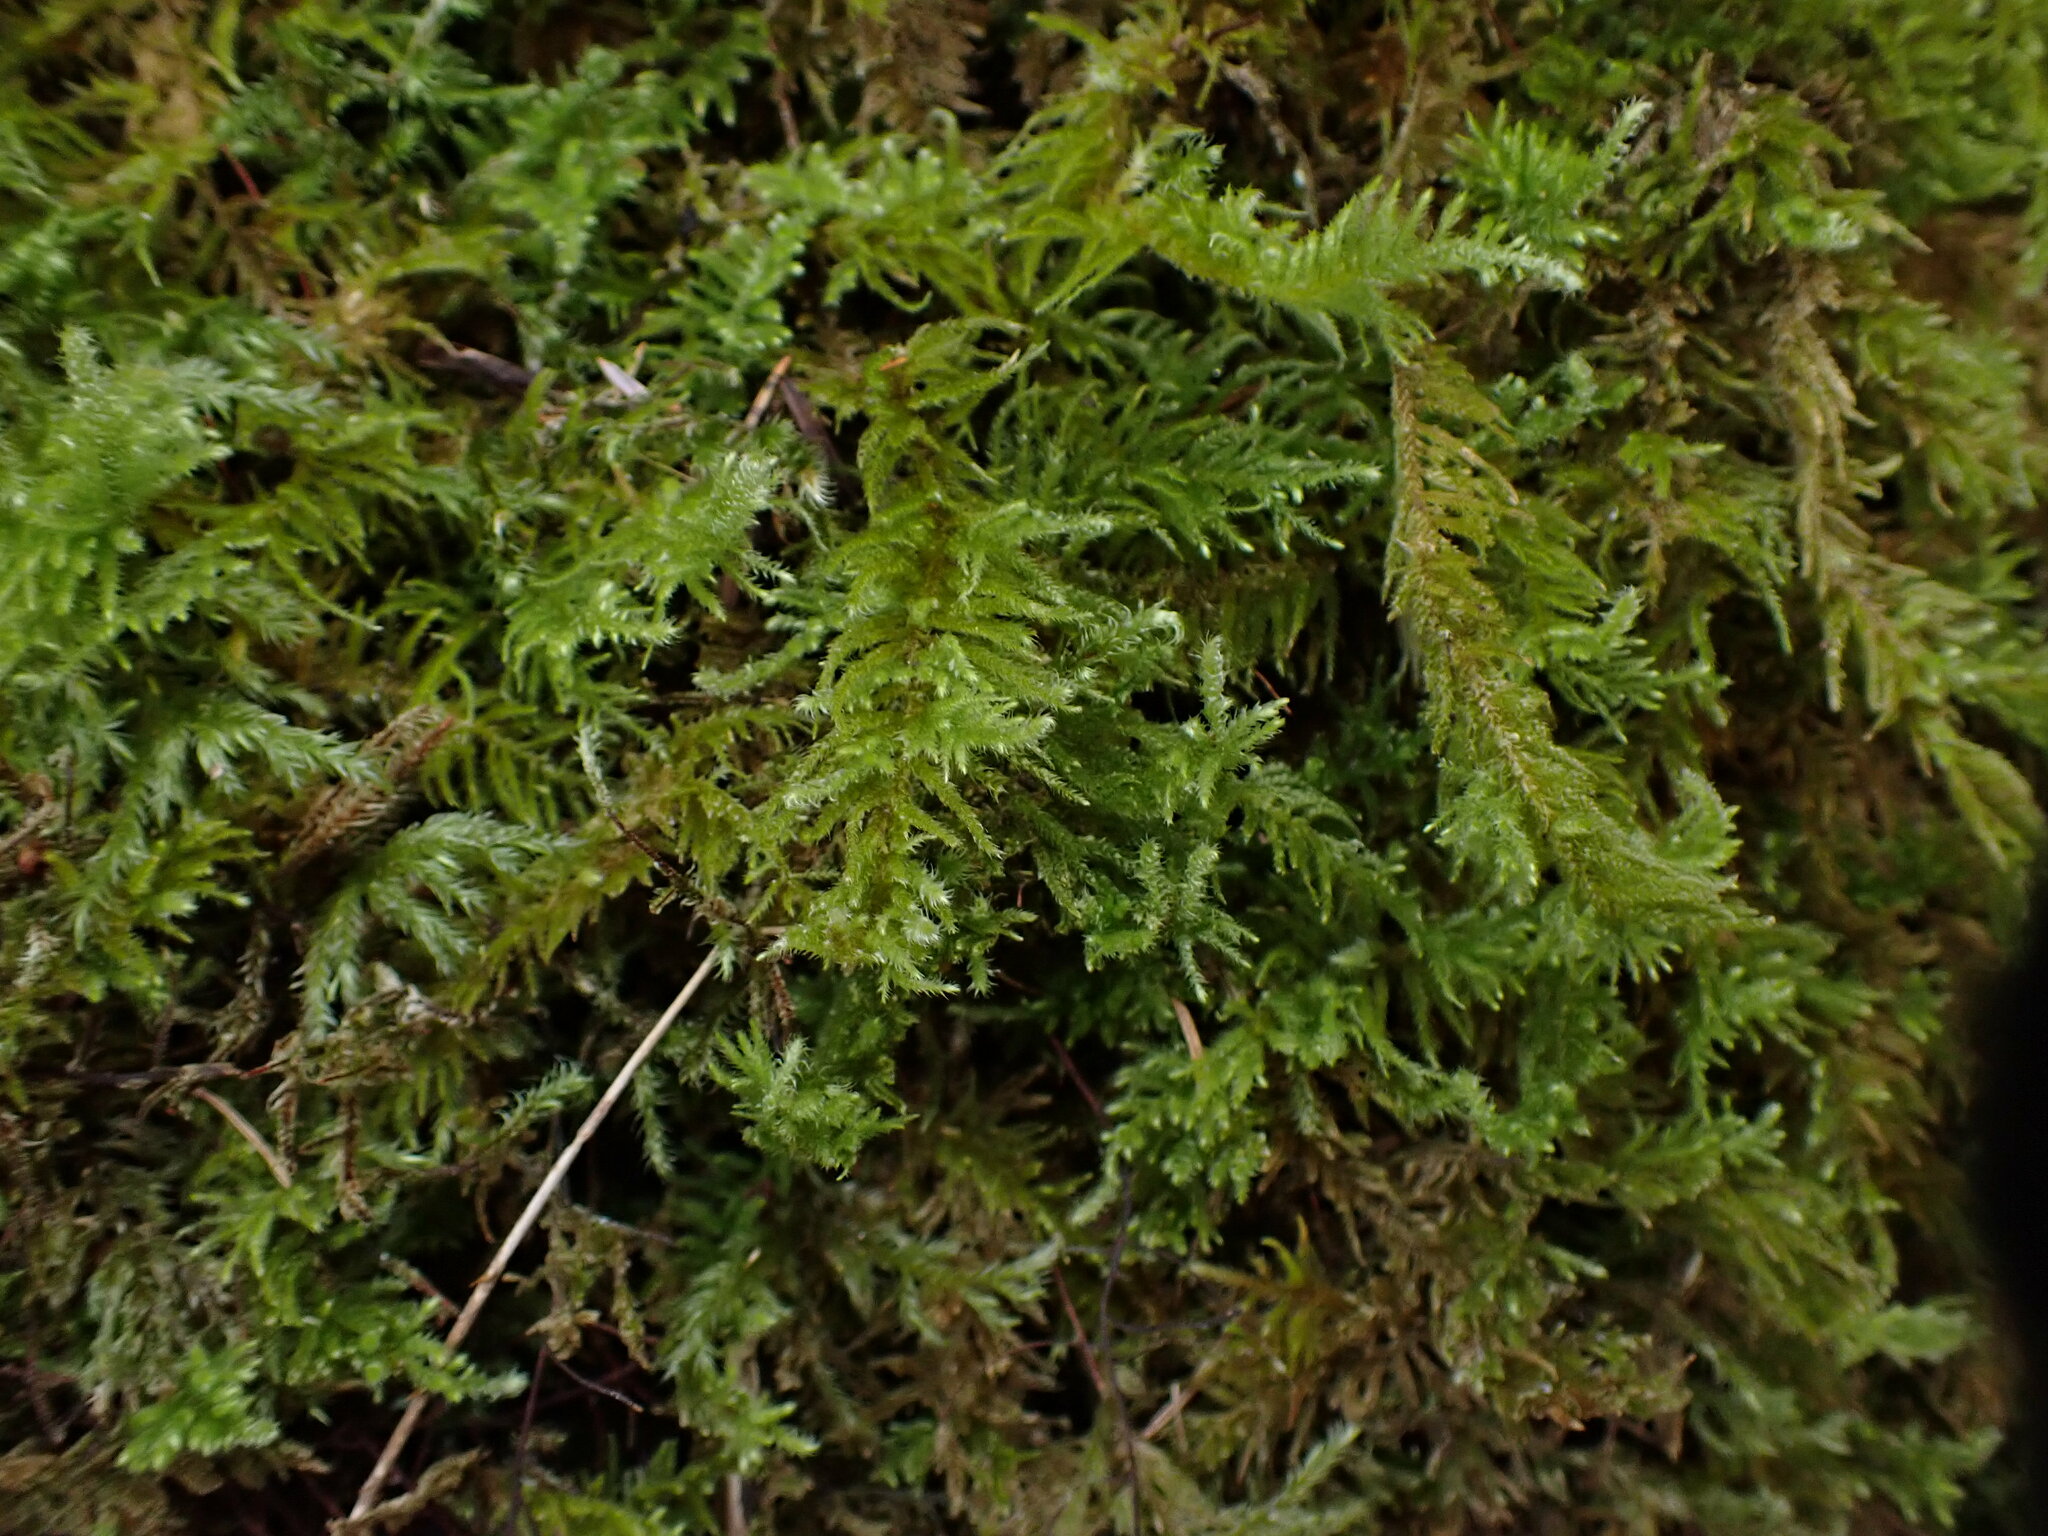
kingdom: Plantae
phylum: Bryophyta
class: Bryopsida
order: Hypnales
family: Brachytheciaceae
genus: Kindbergia
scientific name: Kindbergia oregana
